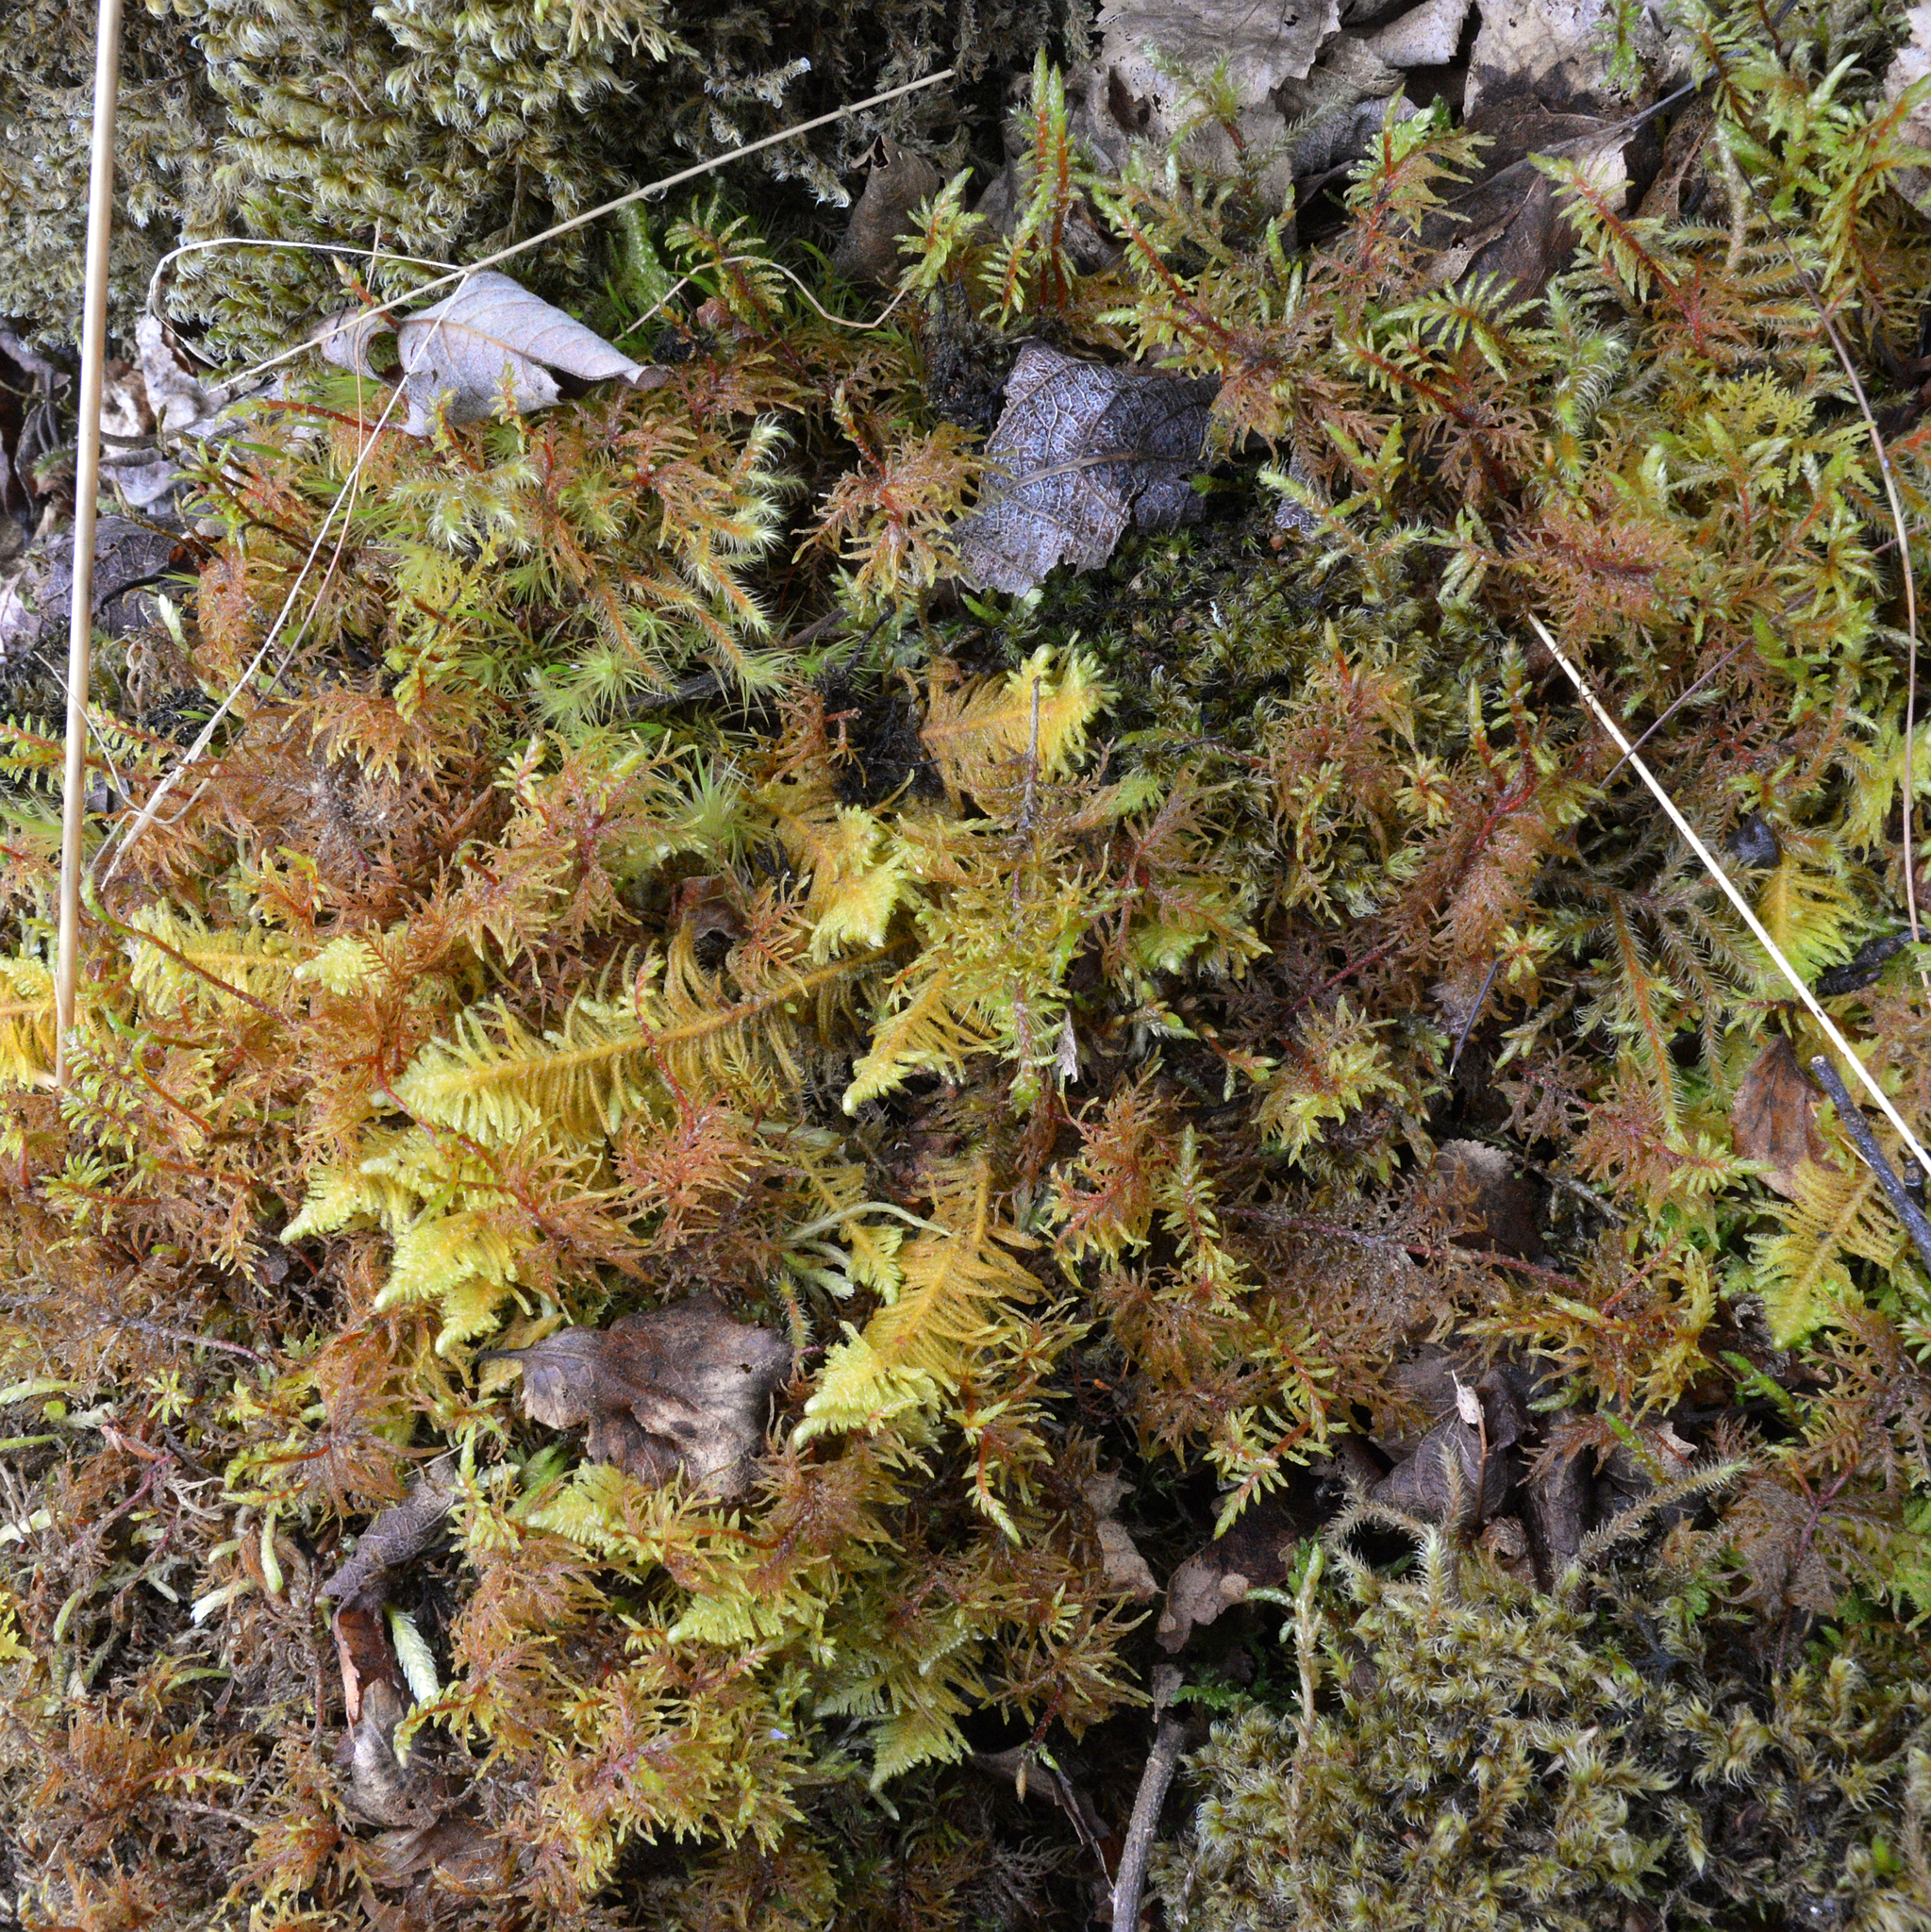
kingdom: Plantae
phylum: Bryophyta
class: Bryopsida
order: Hypnales
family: Pylaisiaceae
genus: Ptilium
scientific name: Ptilium crista-castrensis
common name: Knight's plume moss
